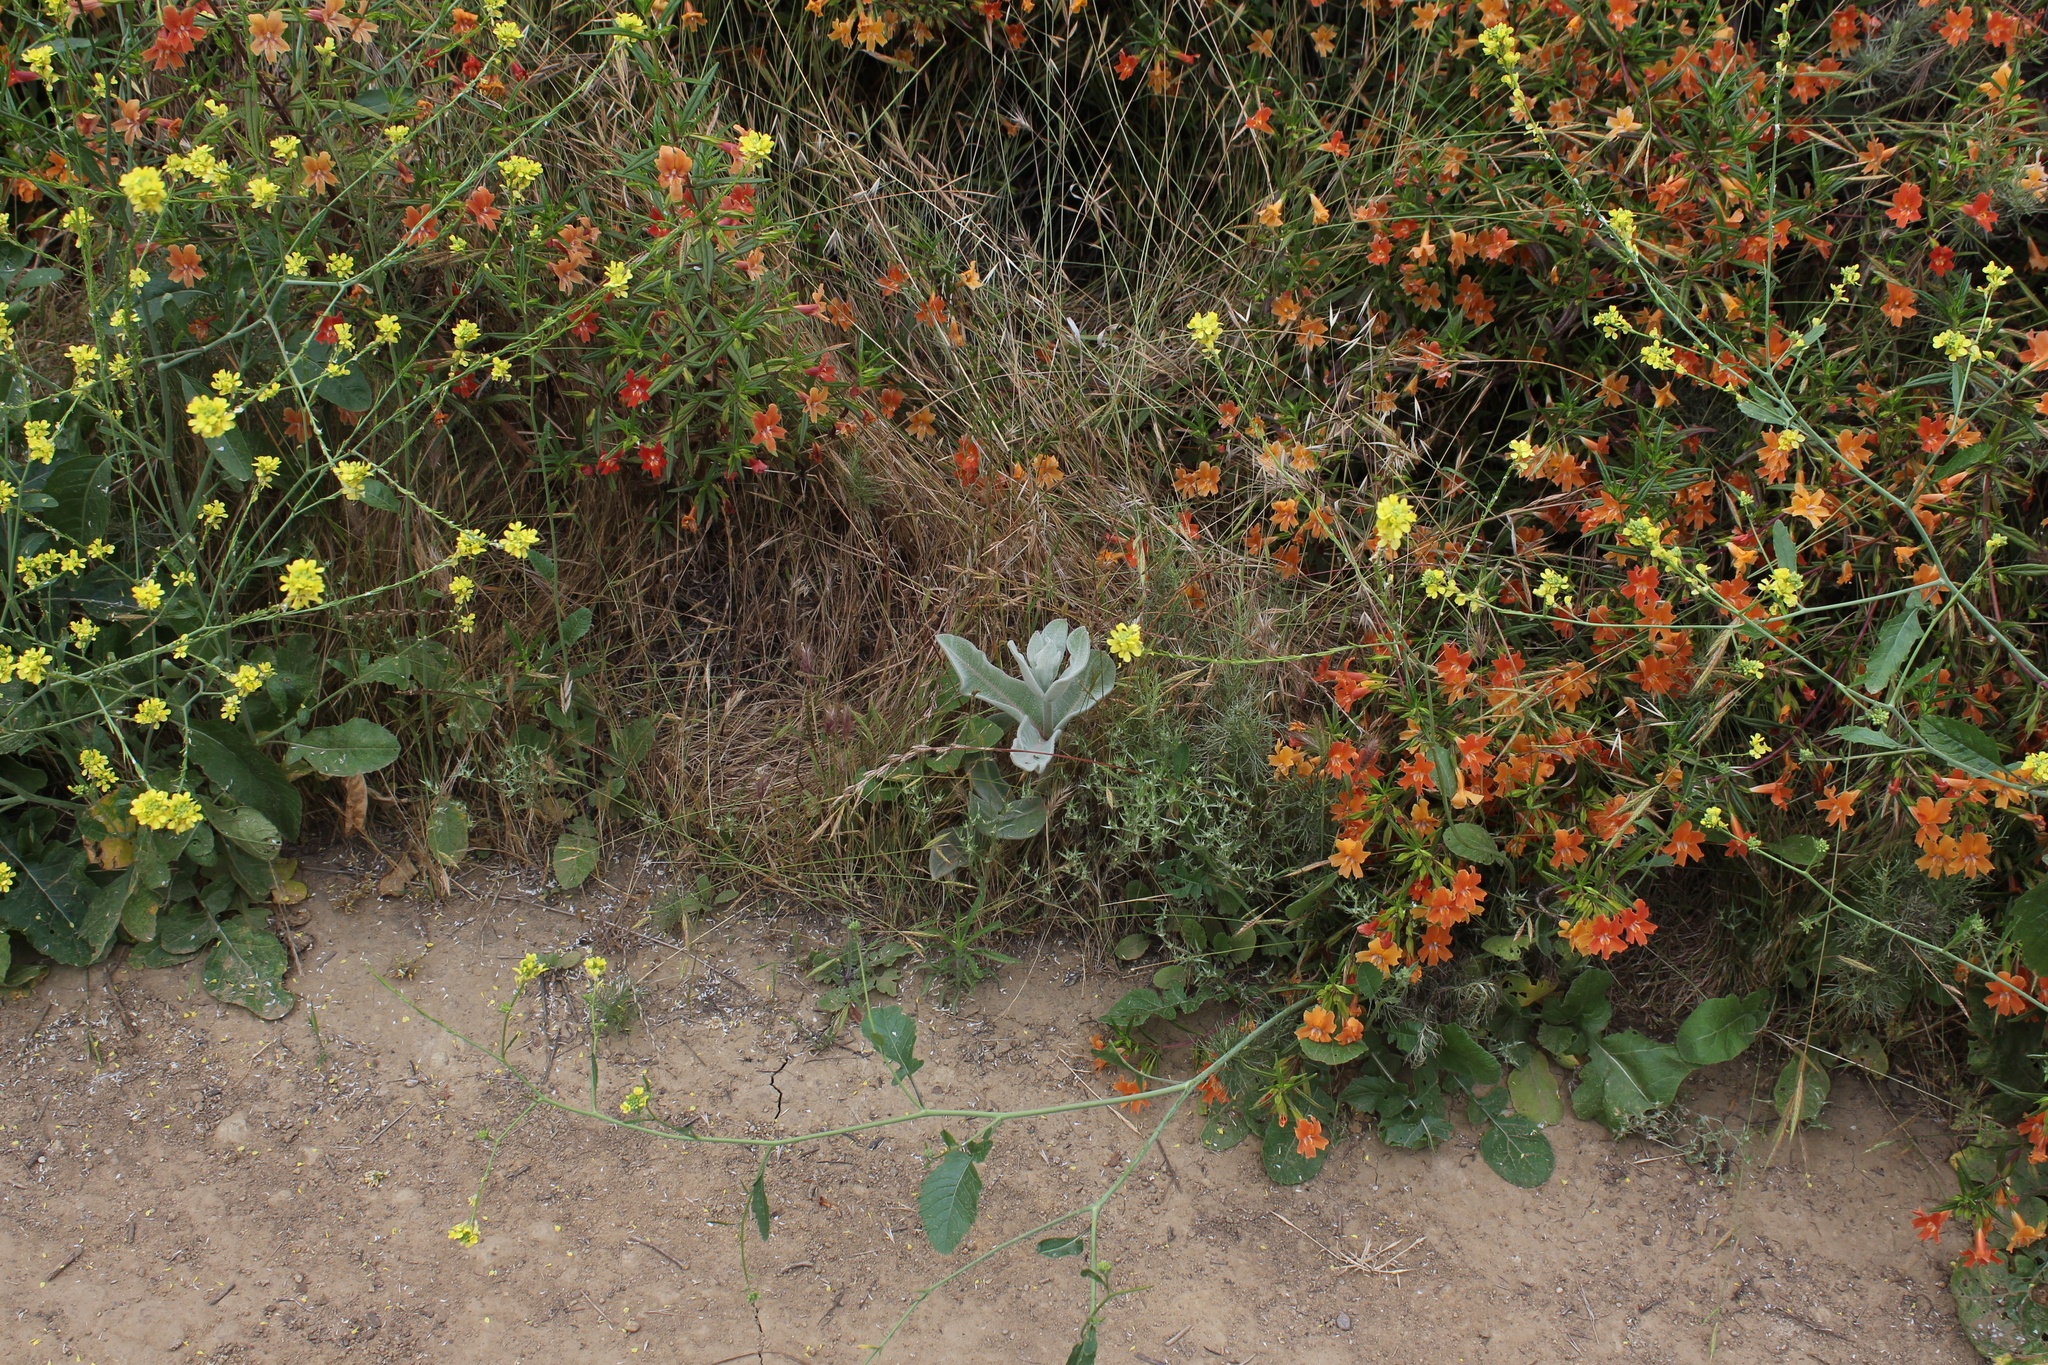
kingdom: Plantae
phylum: Tracheophyta
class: Magnoliopsida
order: Gentianales
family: Apocynaceae
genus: Asclepias
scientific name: Asclepias eriocarpa
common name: Indian milkweed
